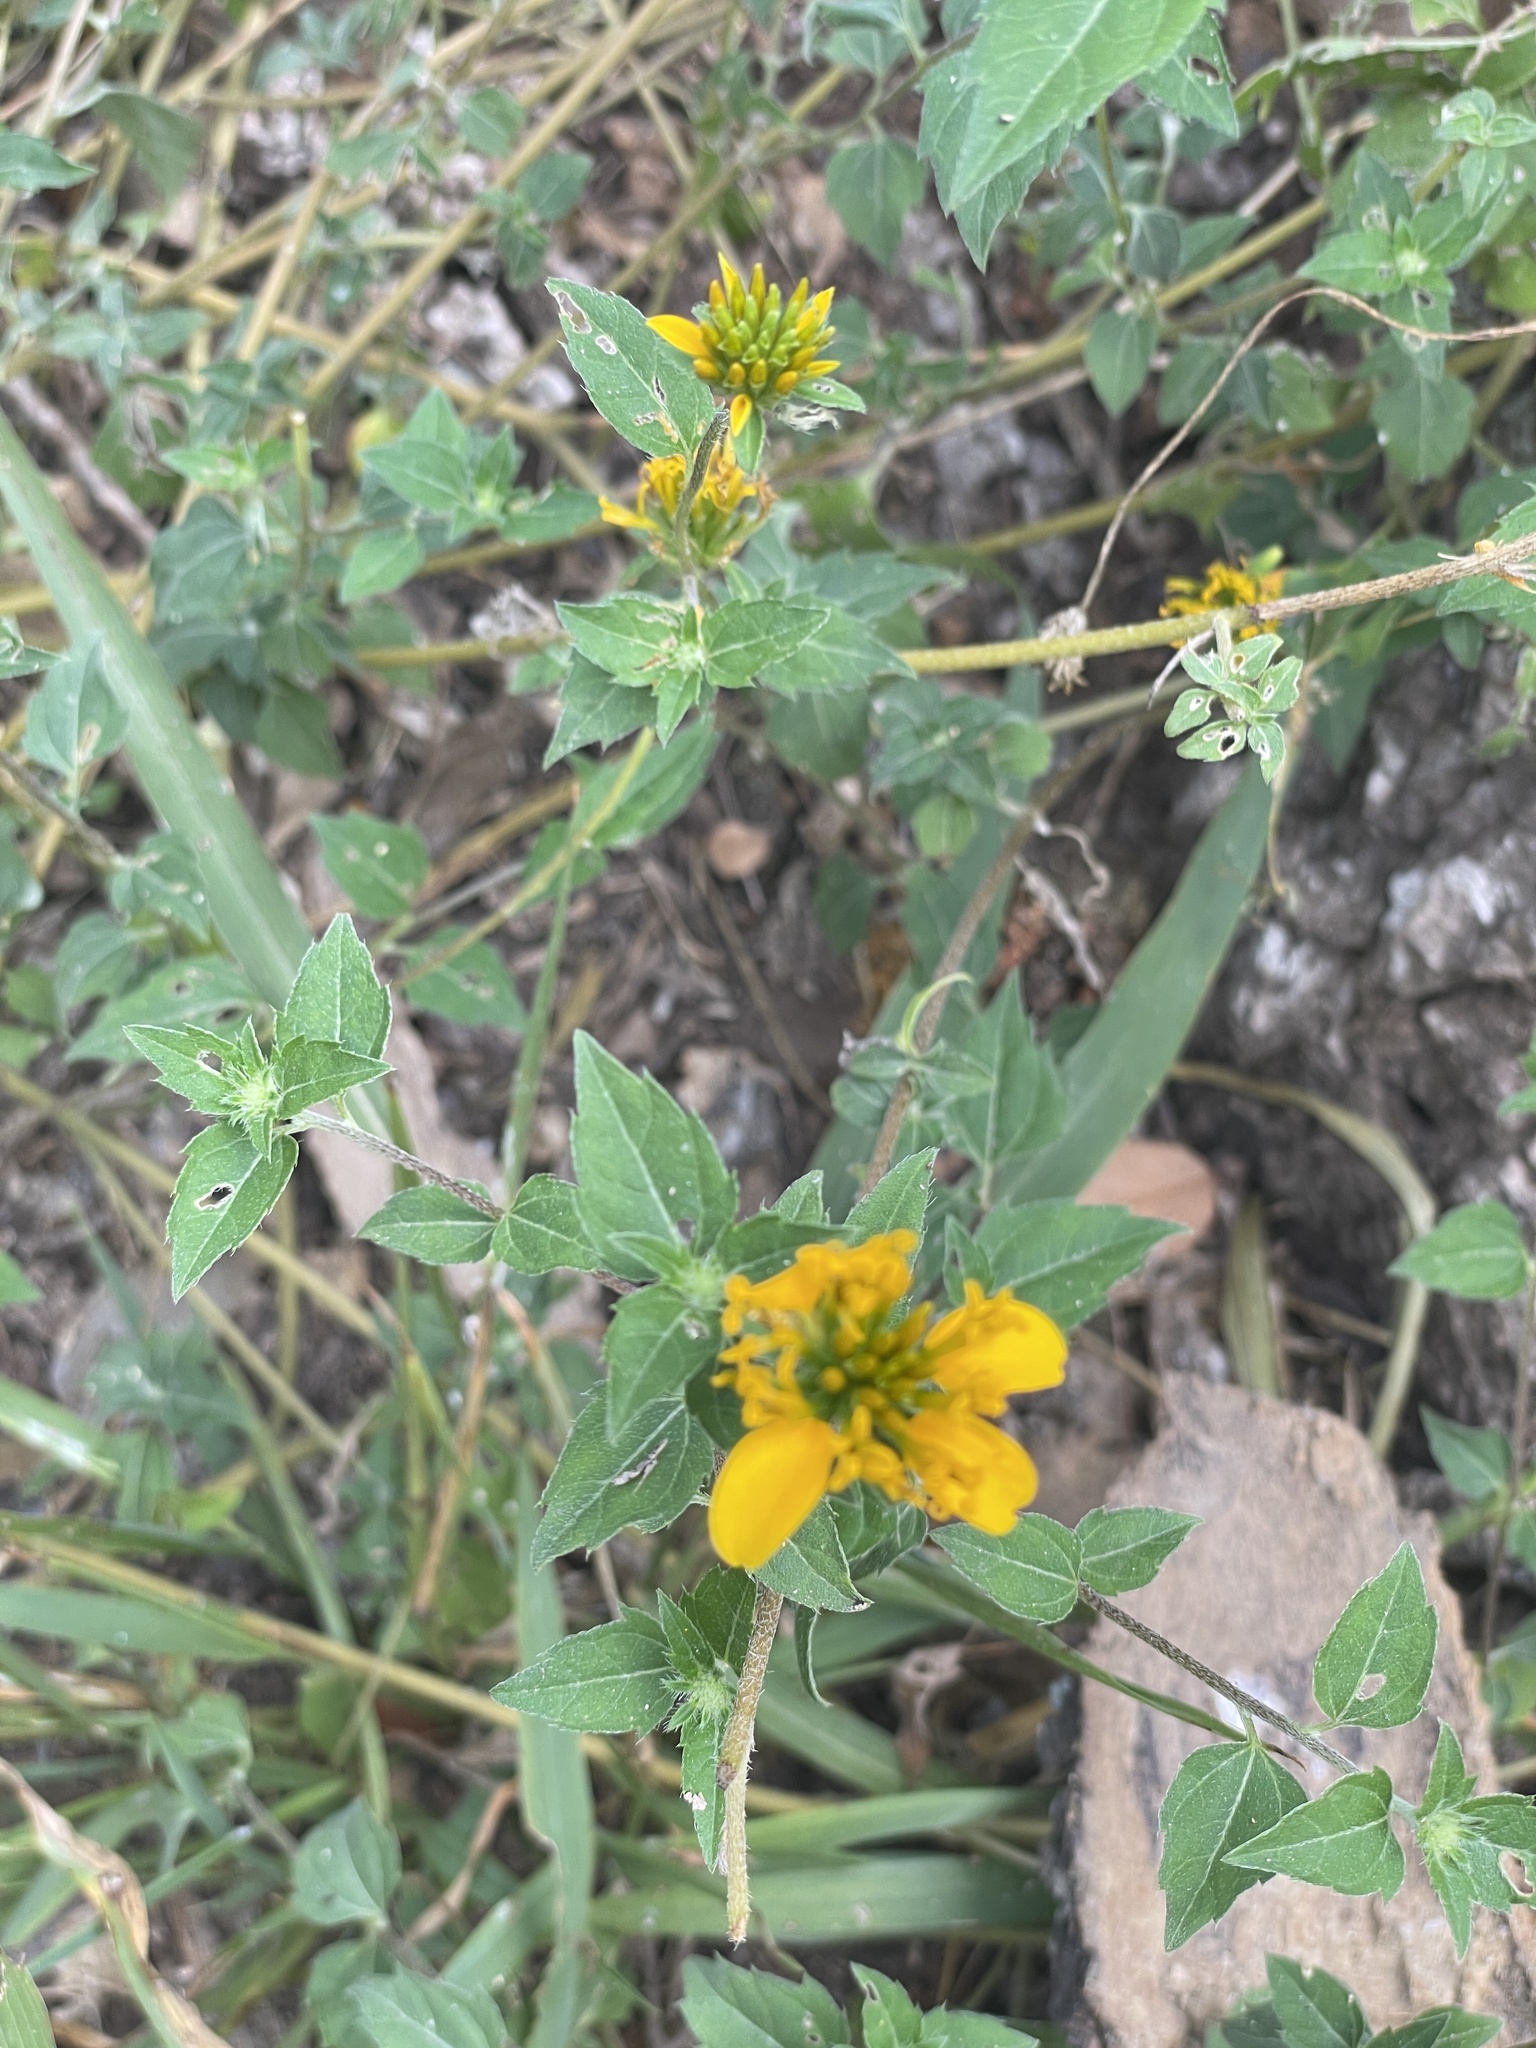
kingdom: Plantae
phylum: Tracheophyta
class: Magnoliopsida
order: Asterales
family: Asteraceae
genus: Sclerocarpus
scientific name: Sclerocarpus uniserialis
